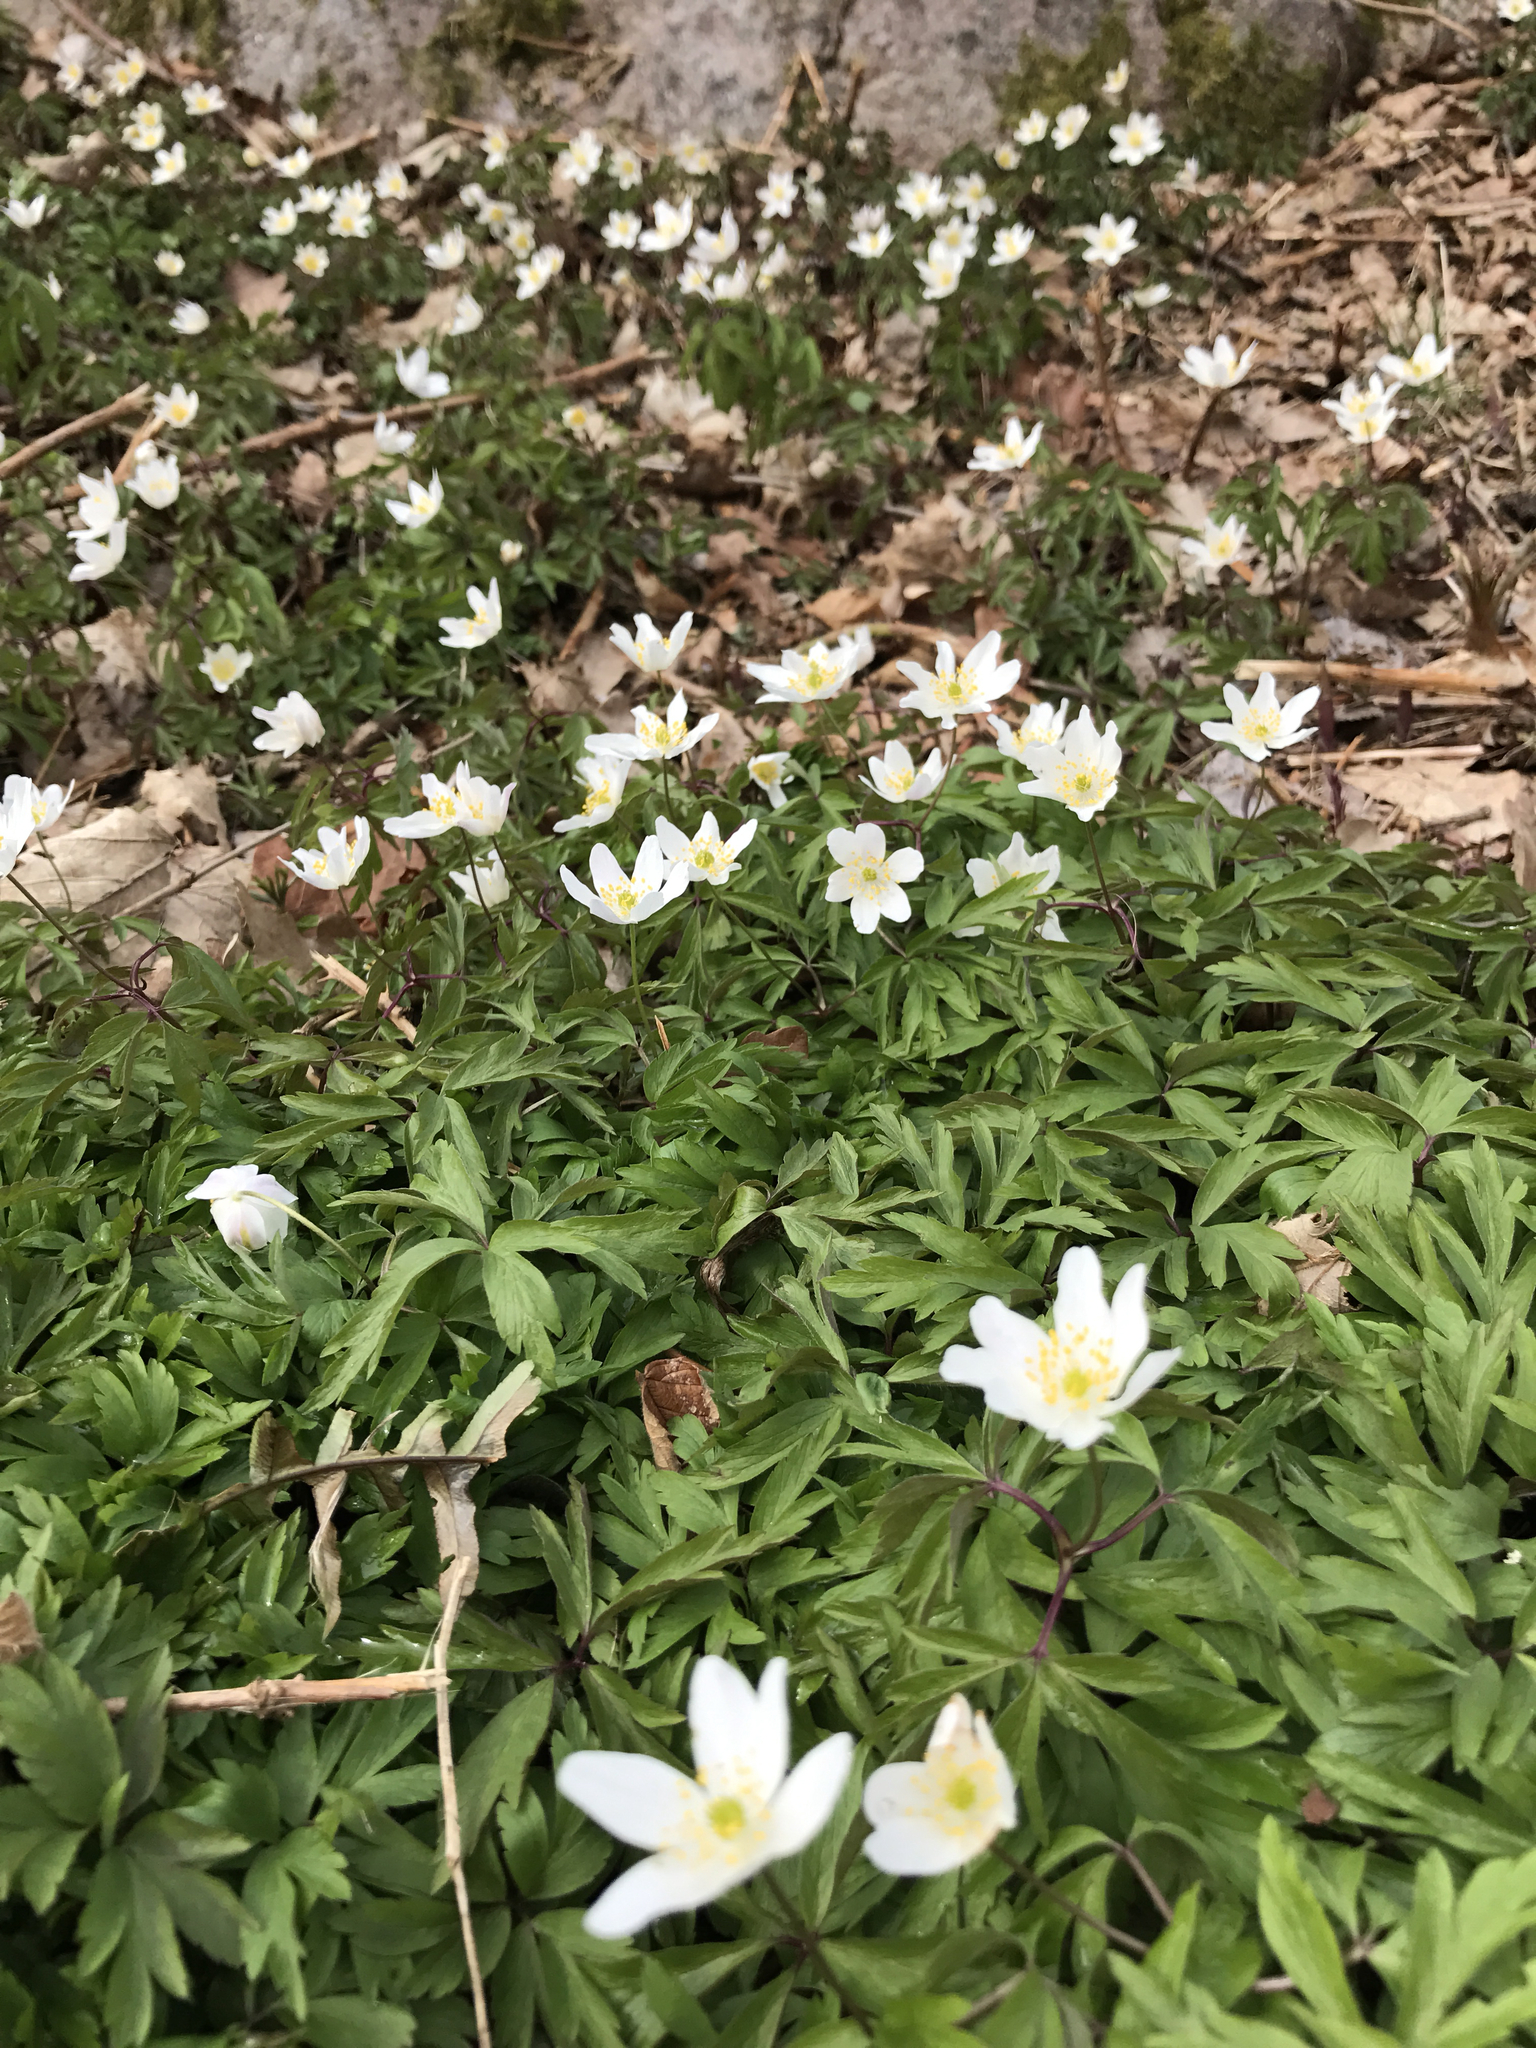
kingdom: Plantae
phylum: Tracheophyta
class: Magnoliopsida
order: Ranunculales
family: Ranunculaceae
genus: Anemone
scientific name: Anemone nemorosa
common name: Wood anemone
